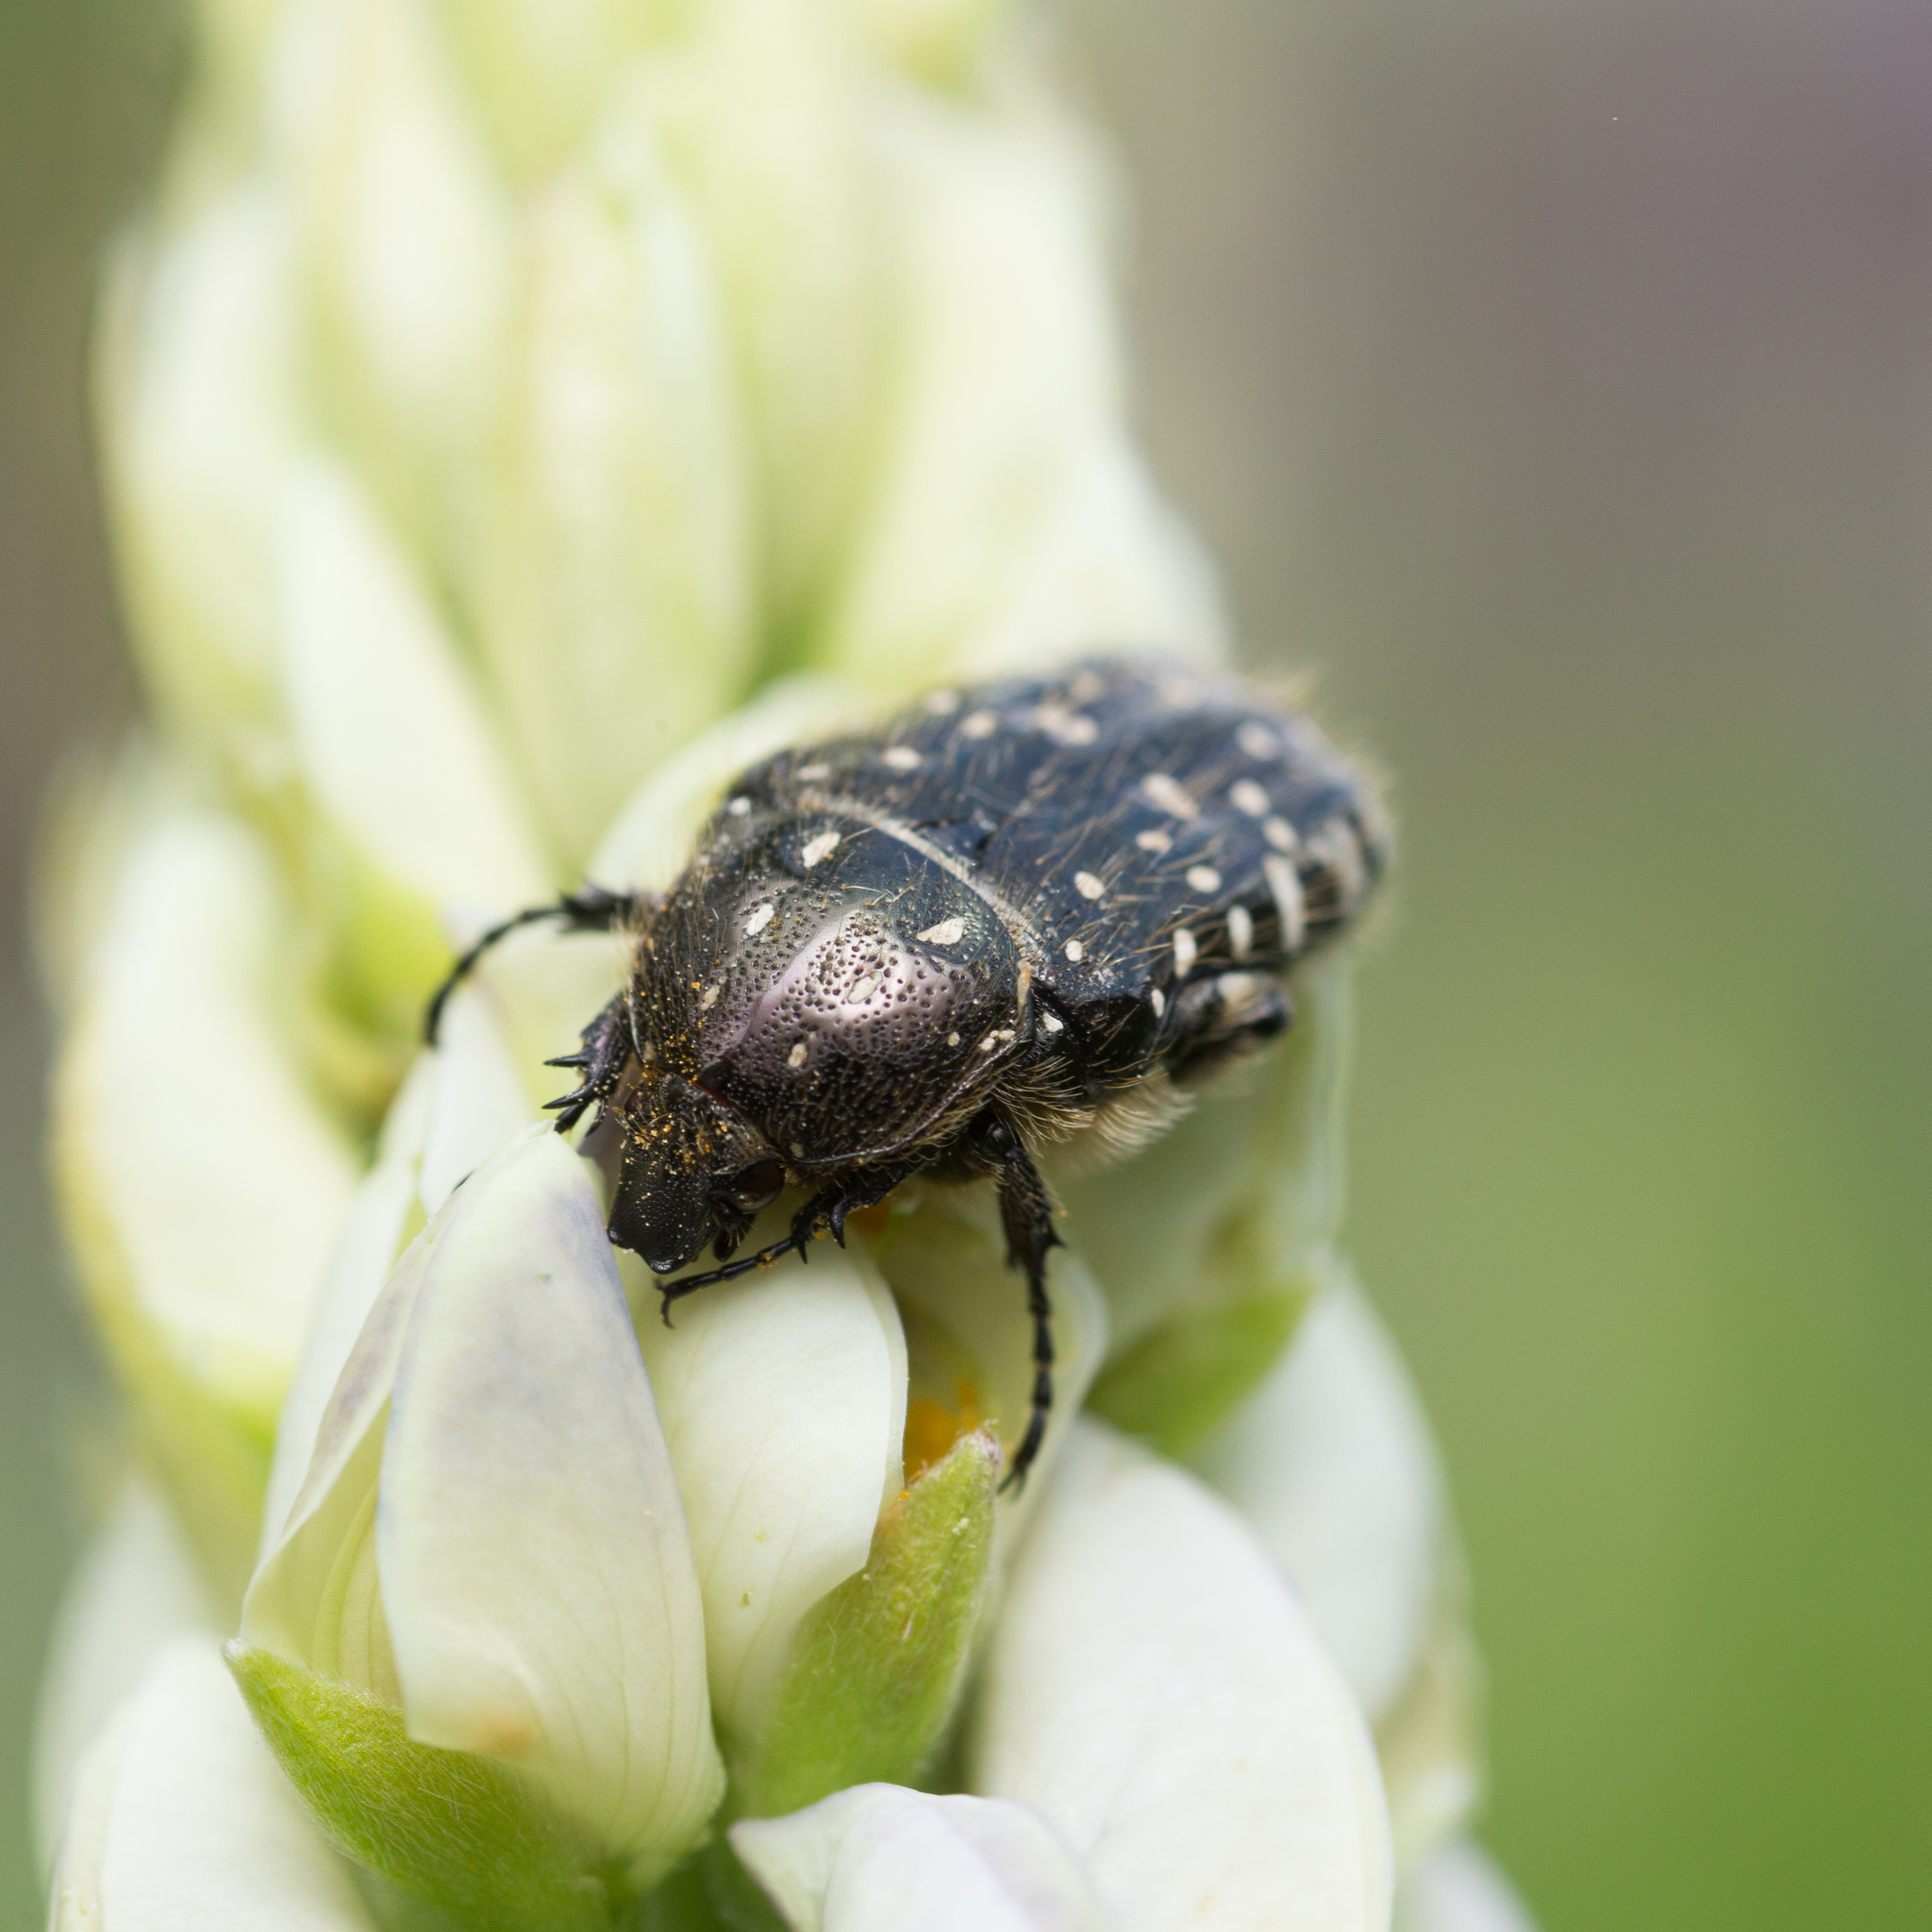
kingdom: Animalia
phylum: Arthropoda
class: Insecta
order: Coleoptera
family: Scarabaeidae
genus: Oxythyrea
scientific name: Oxythyrea funesta
